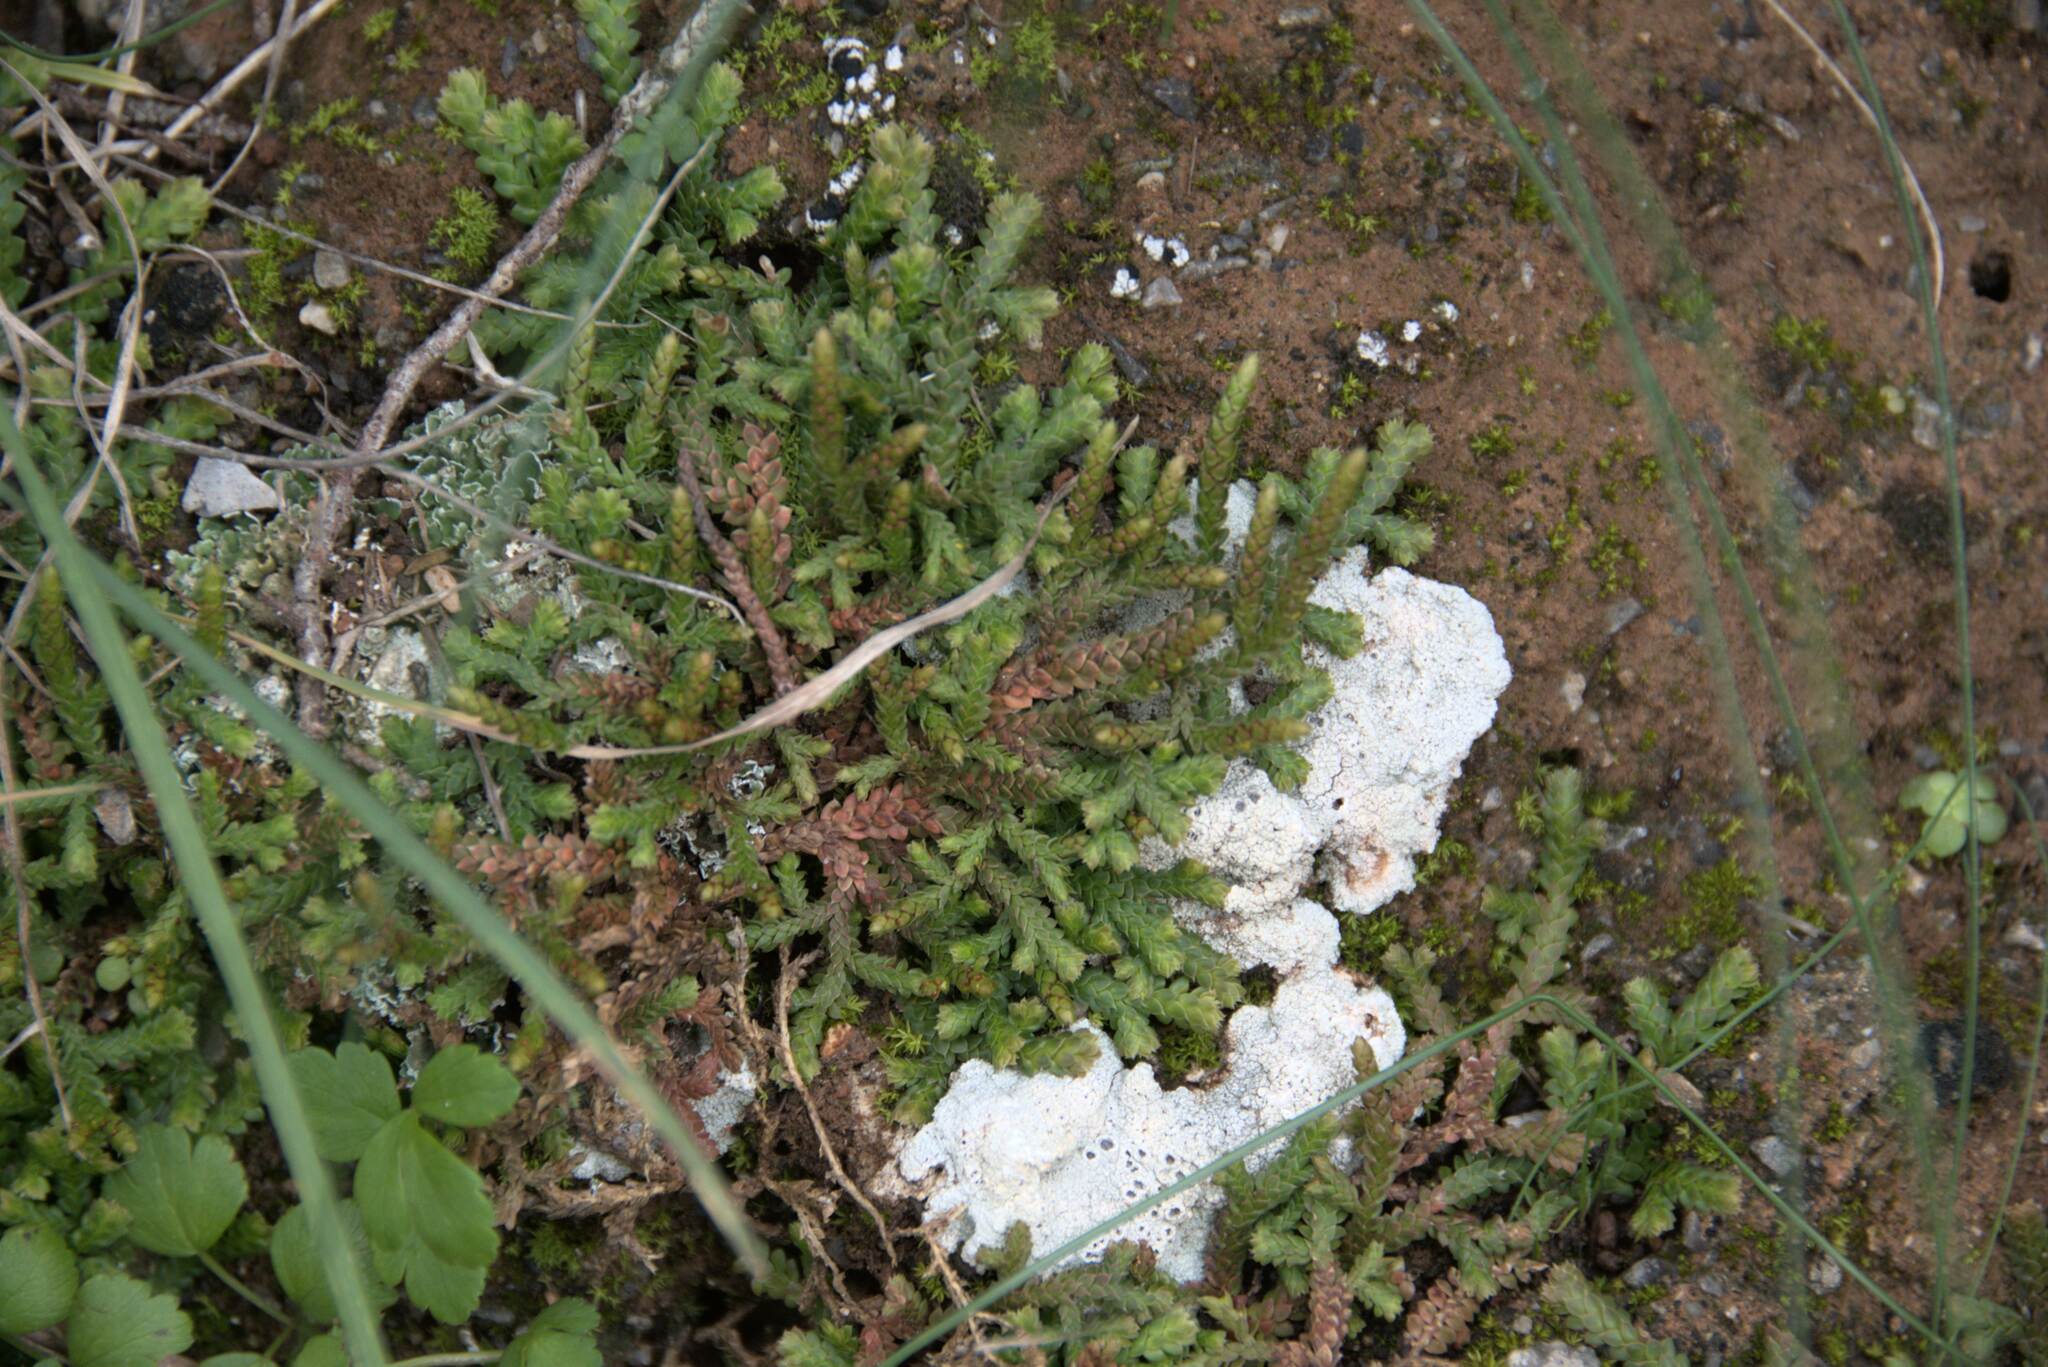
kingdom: Plantae
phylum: Tracheophyta
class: Lycopodiopsida
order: Selaginellales
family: Selaginellaceae
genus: Selaginella
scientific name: Selaginella denticulata
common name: Toothed-leaved clubmoss
